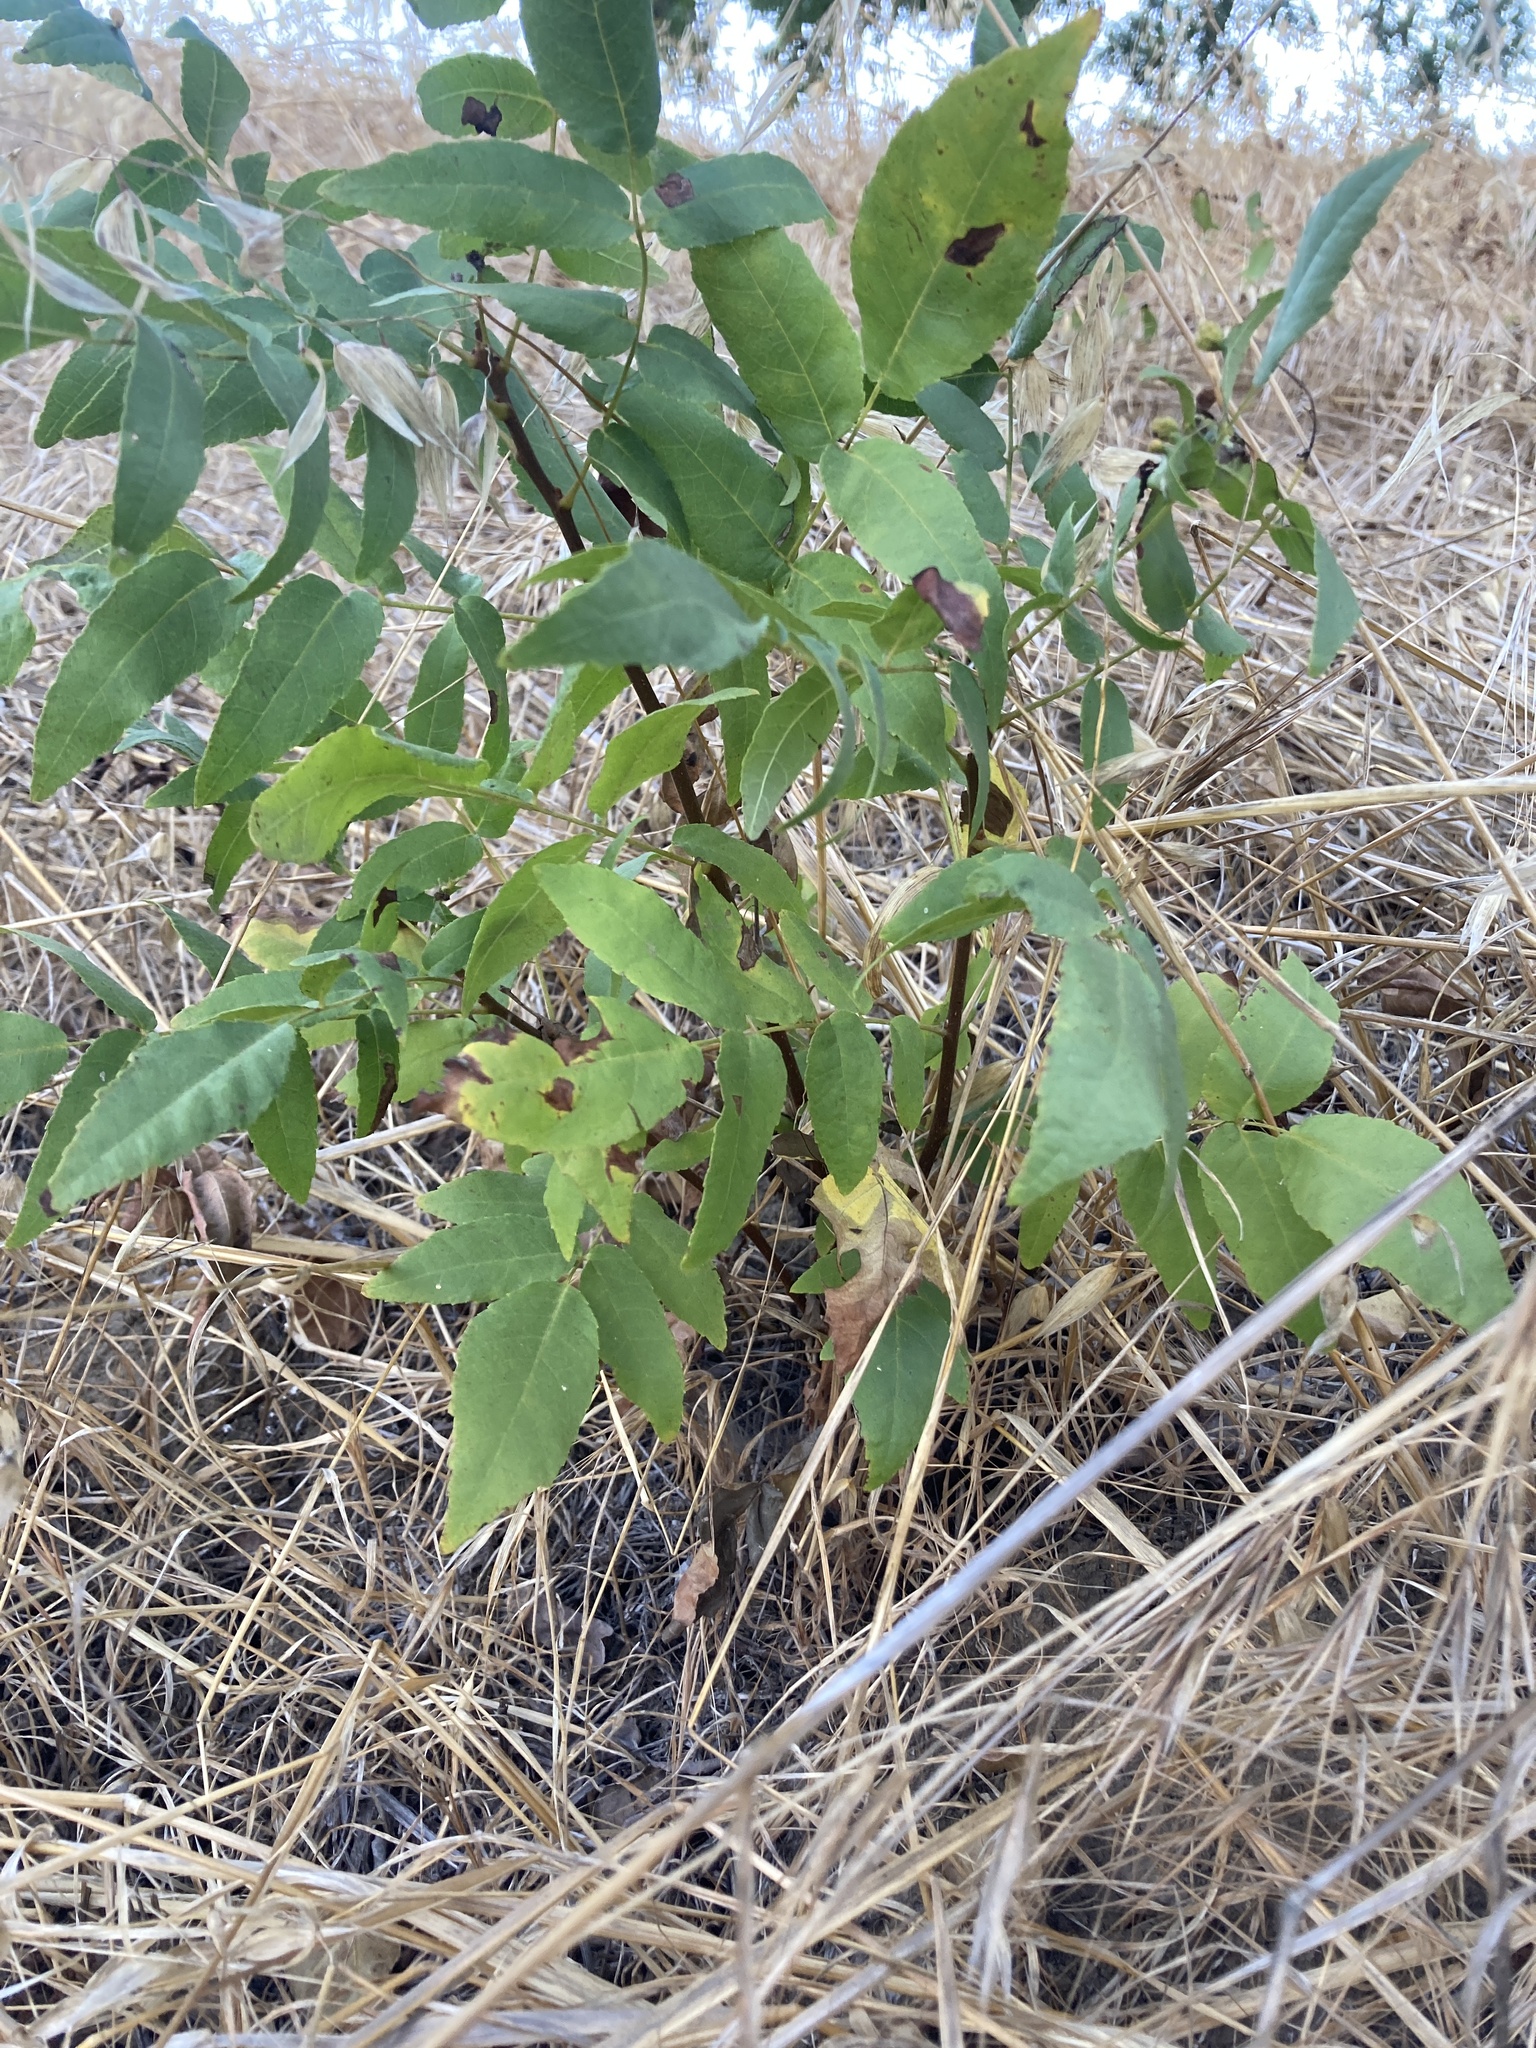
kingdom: Plantae
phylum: Tracheophyta
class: Magnoliopsida
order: Fagales
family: Juglandaceae
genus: Juglans
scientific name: Juglans californica
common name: Southern california black walnut
